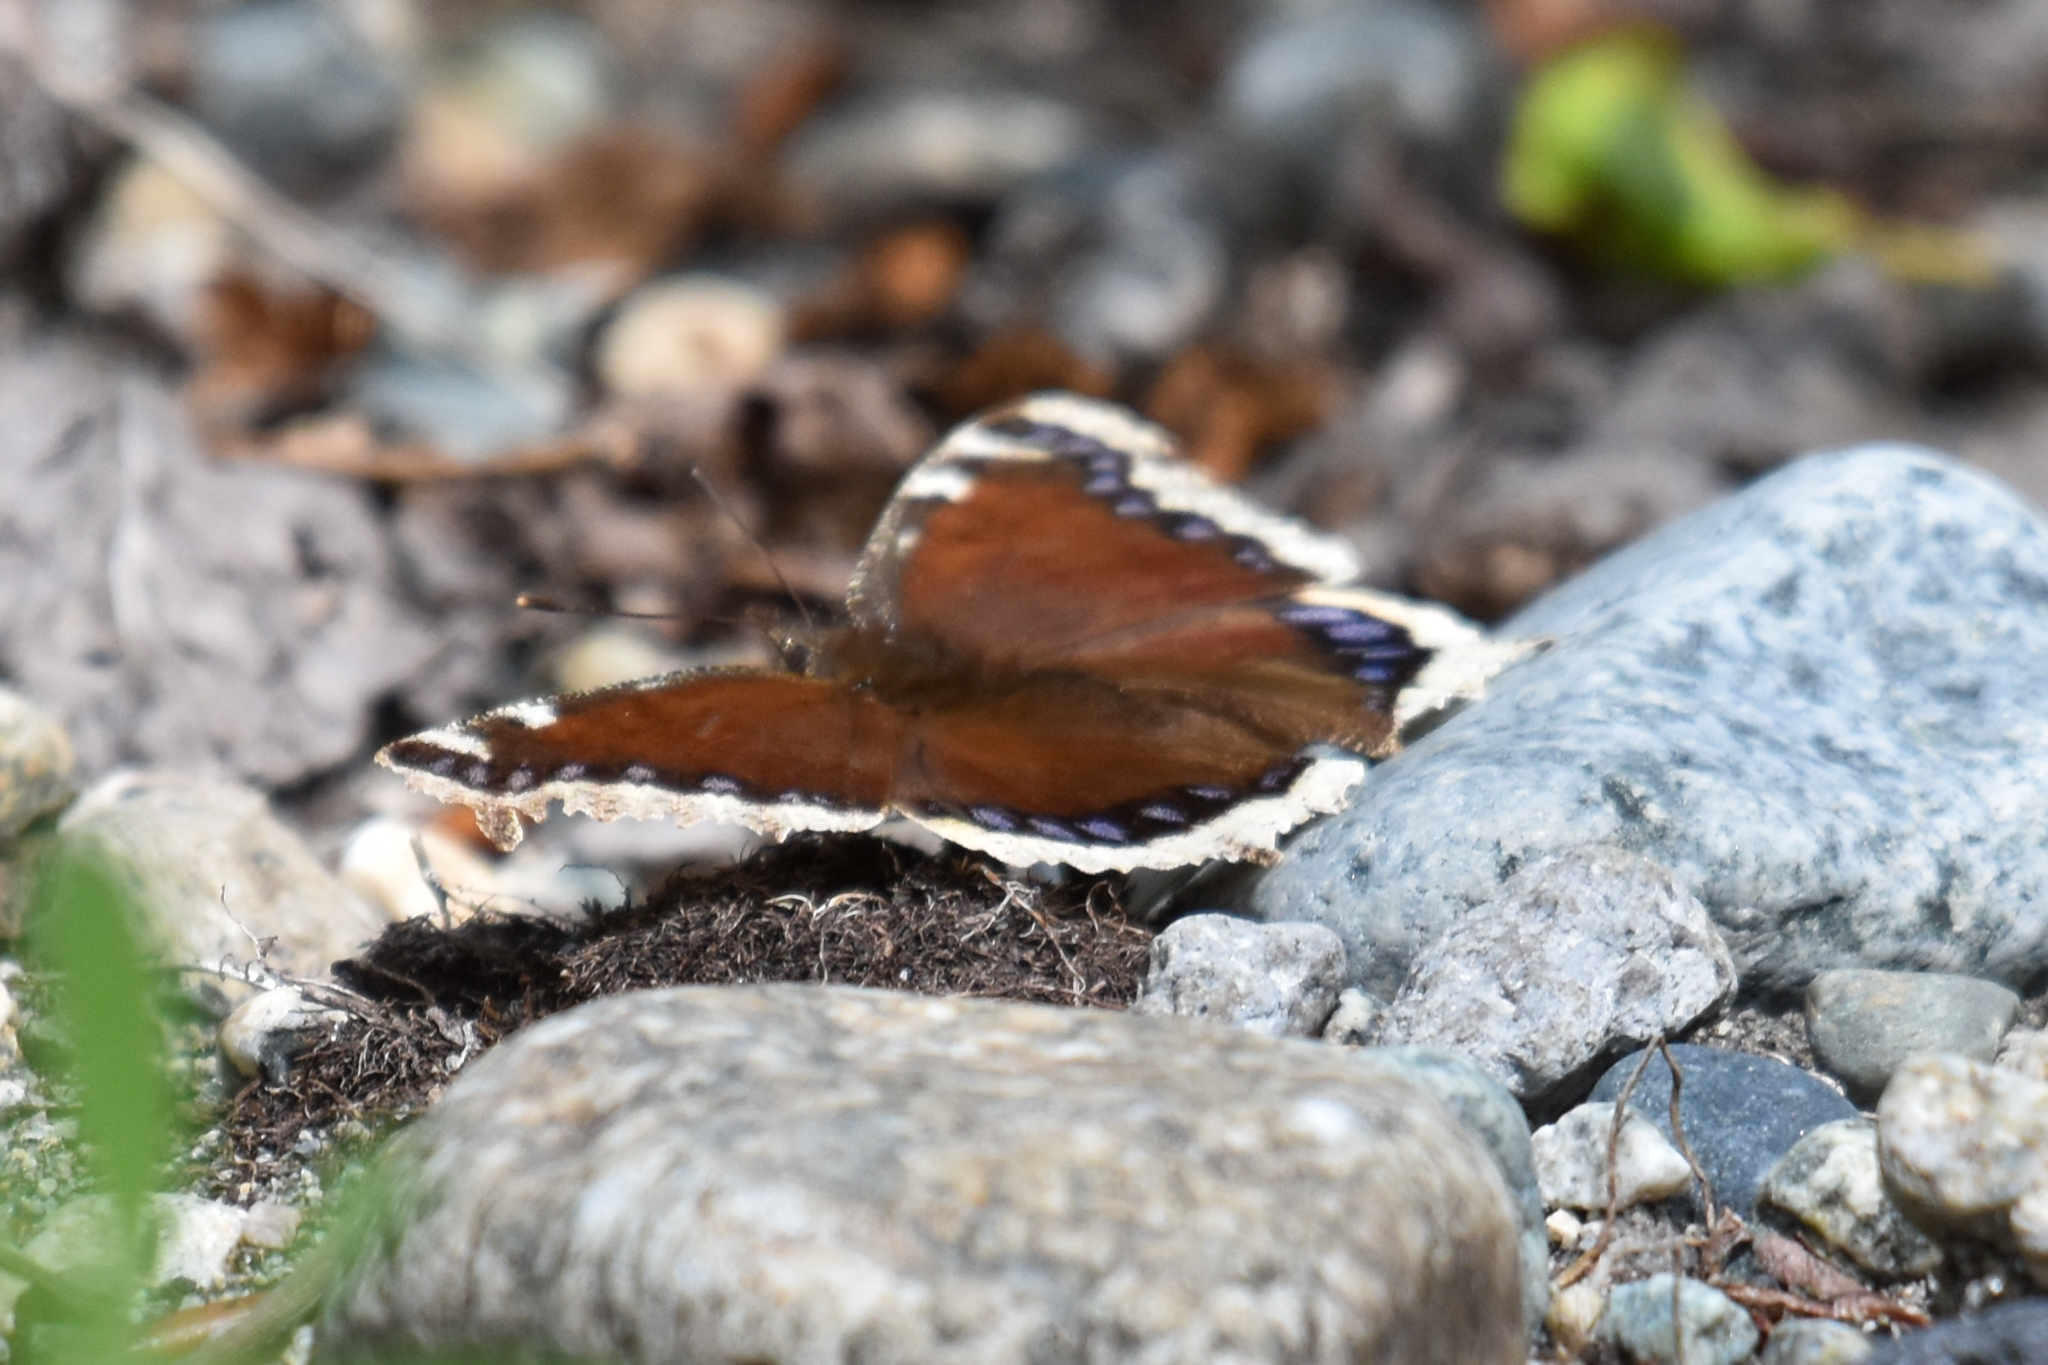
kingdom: Animalia
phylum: Arthropoda
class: Insecta
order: Lepidoptera
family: Nymphalidae
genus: Nymphalis
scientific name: Nymphalis antiopa
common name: Camberwell beauty
